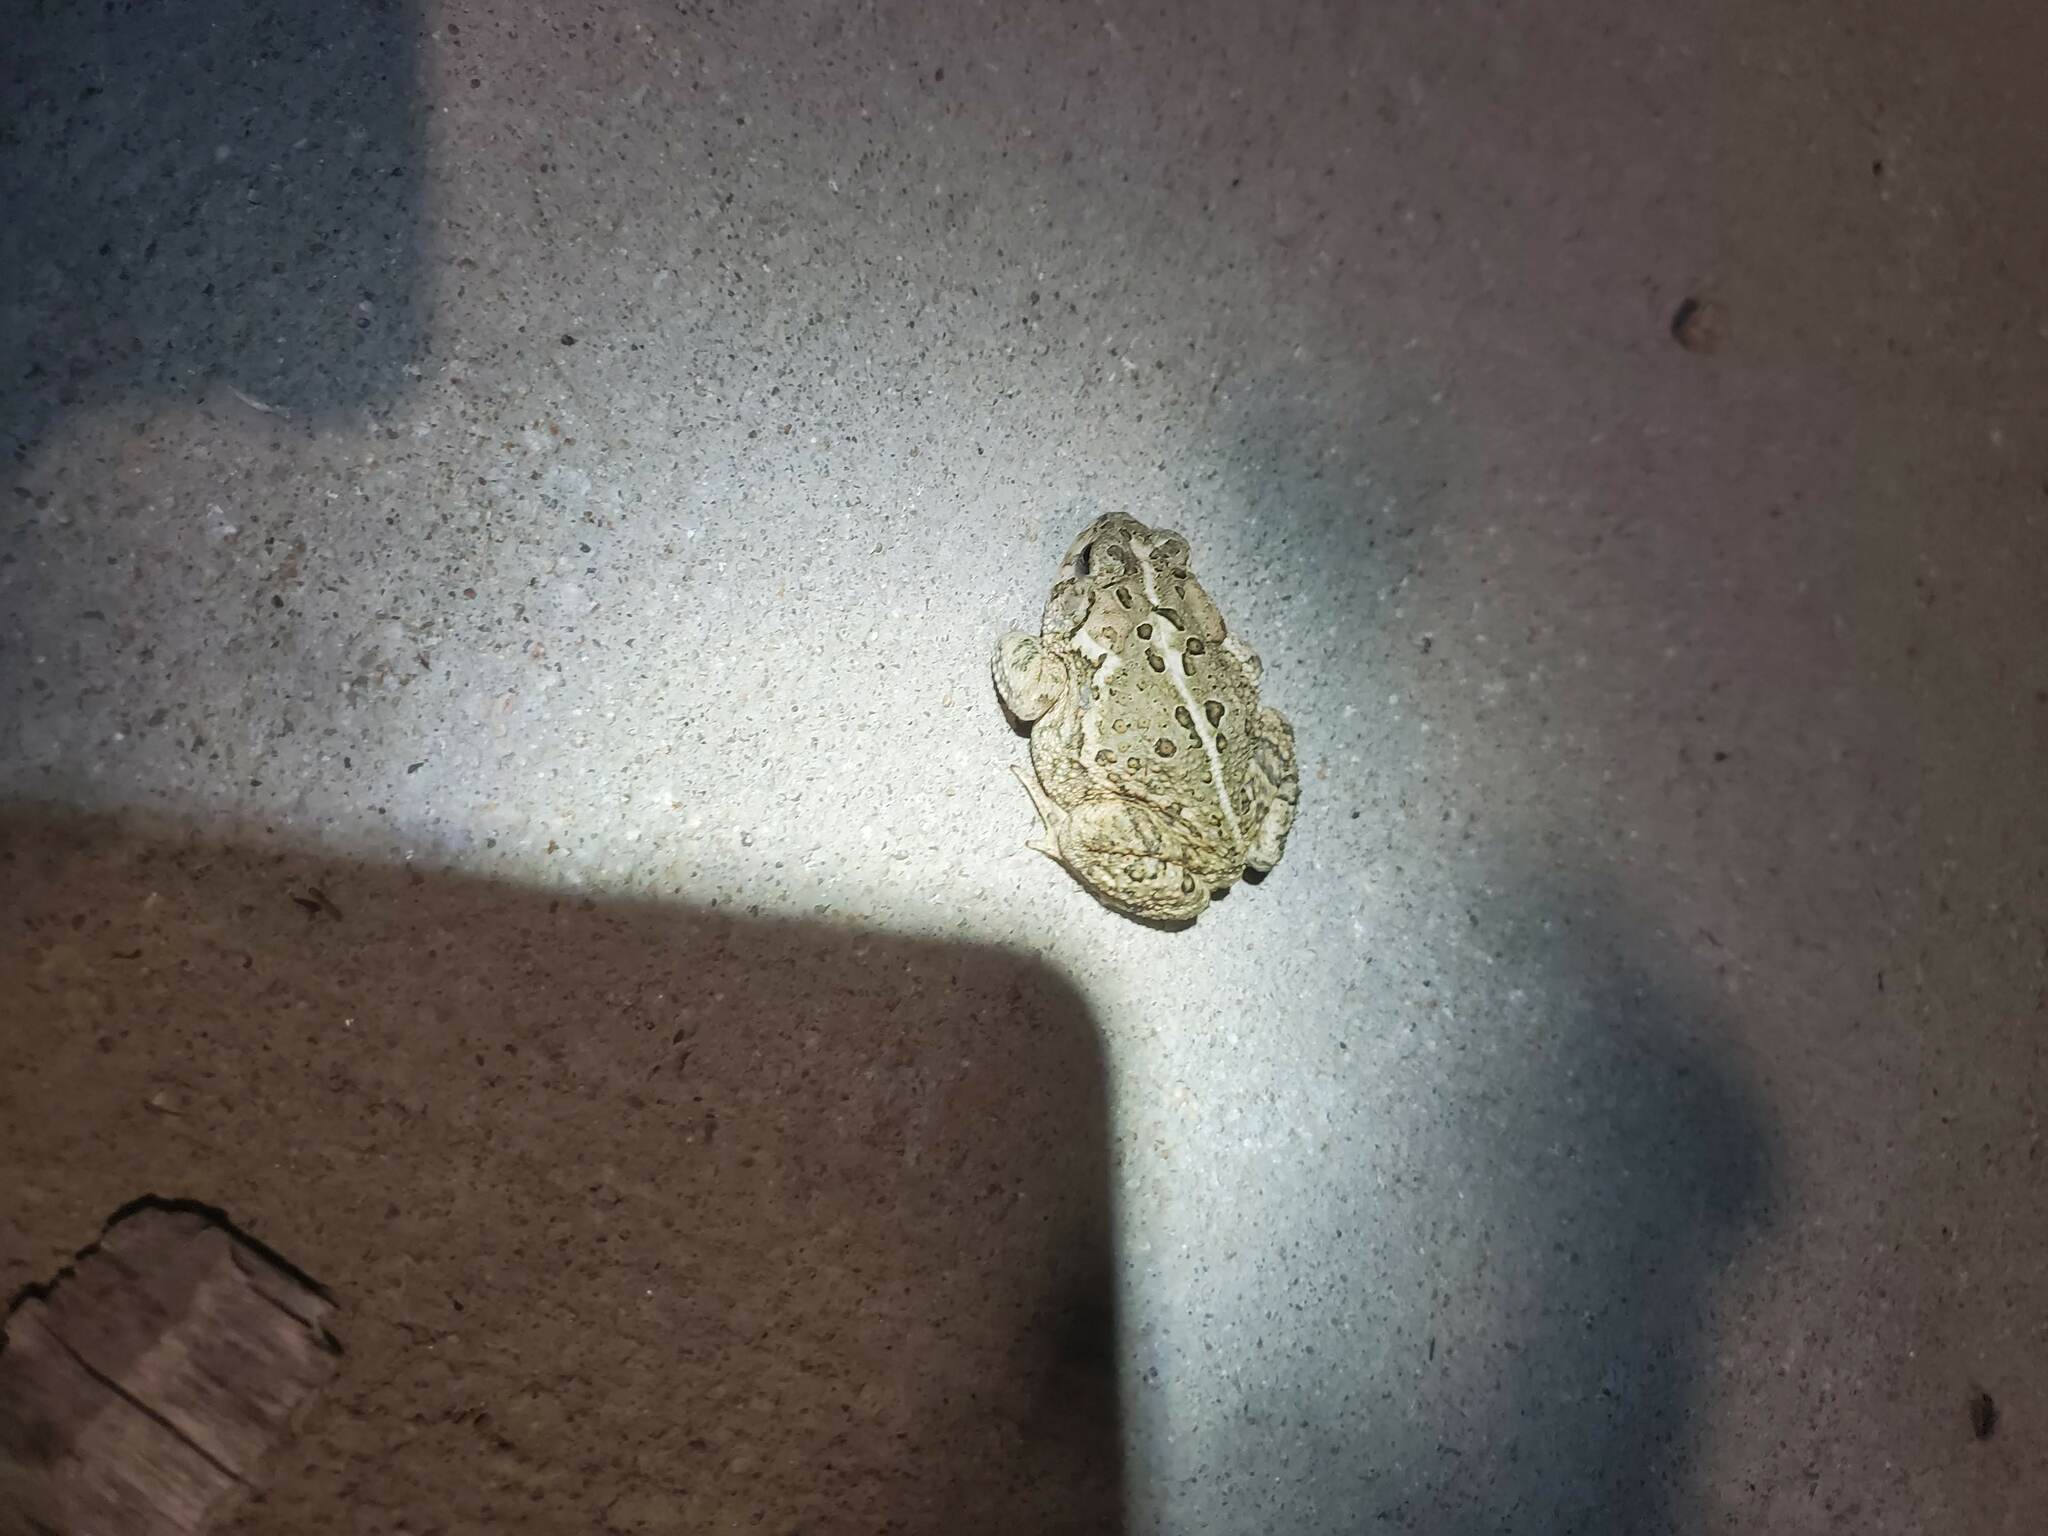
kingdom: Animalia
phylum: Chordata
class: Amphibia
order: Anura
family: Bufonidae
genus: Anaxyrus
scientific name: Anaxyrus woodhousii
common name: Woodhouse's toad
